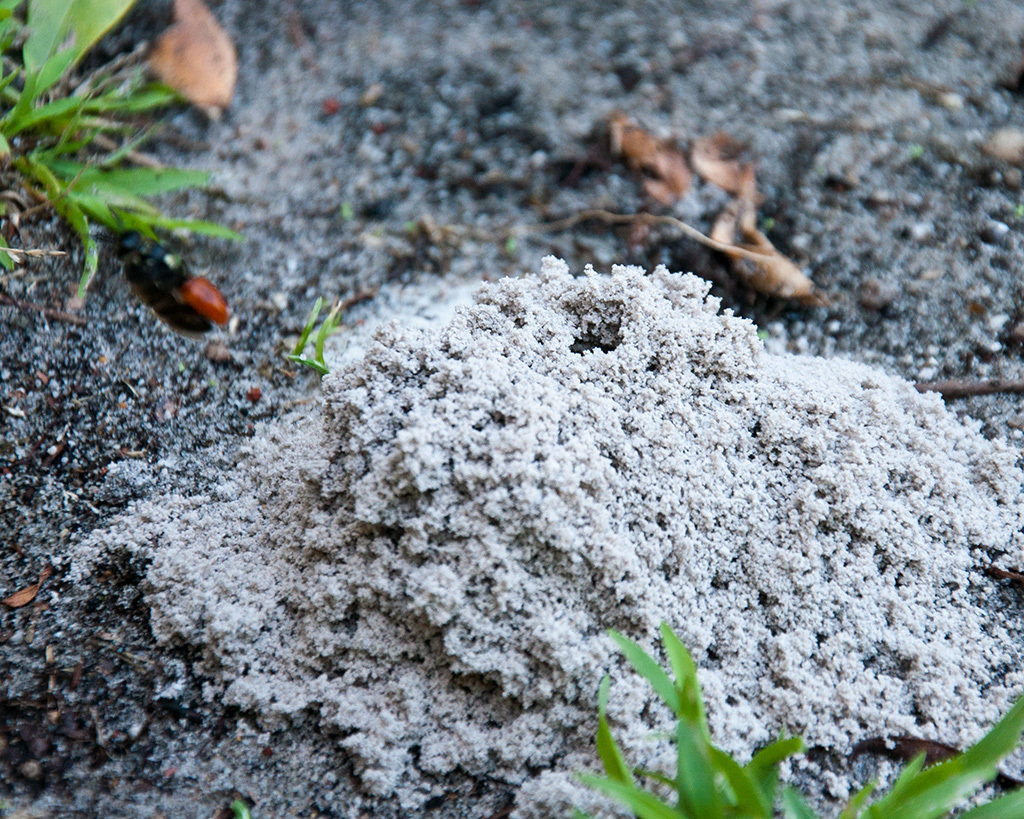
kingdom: Animalia
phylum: Arthropoda
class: Insecta
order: Hymenoptera
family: Crabronidae
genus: Philanthus
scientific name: Philanthus loeflingi
